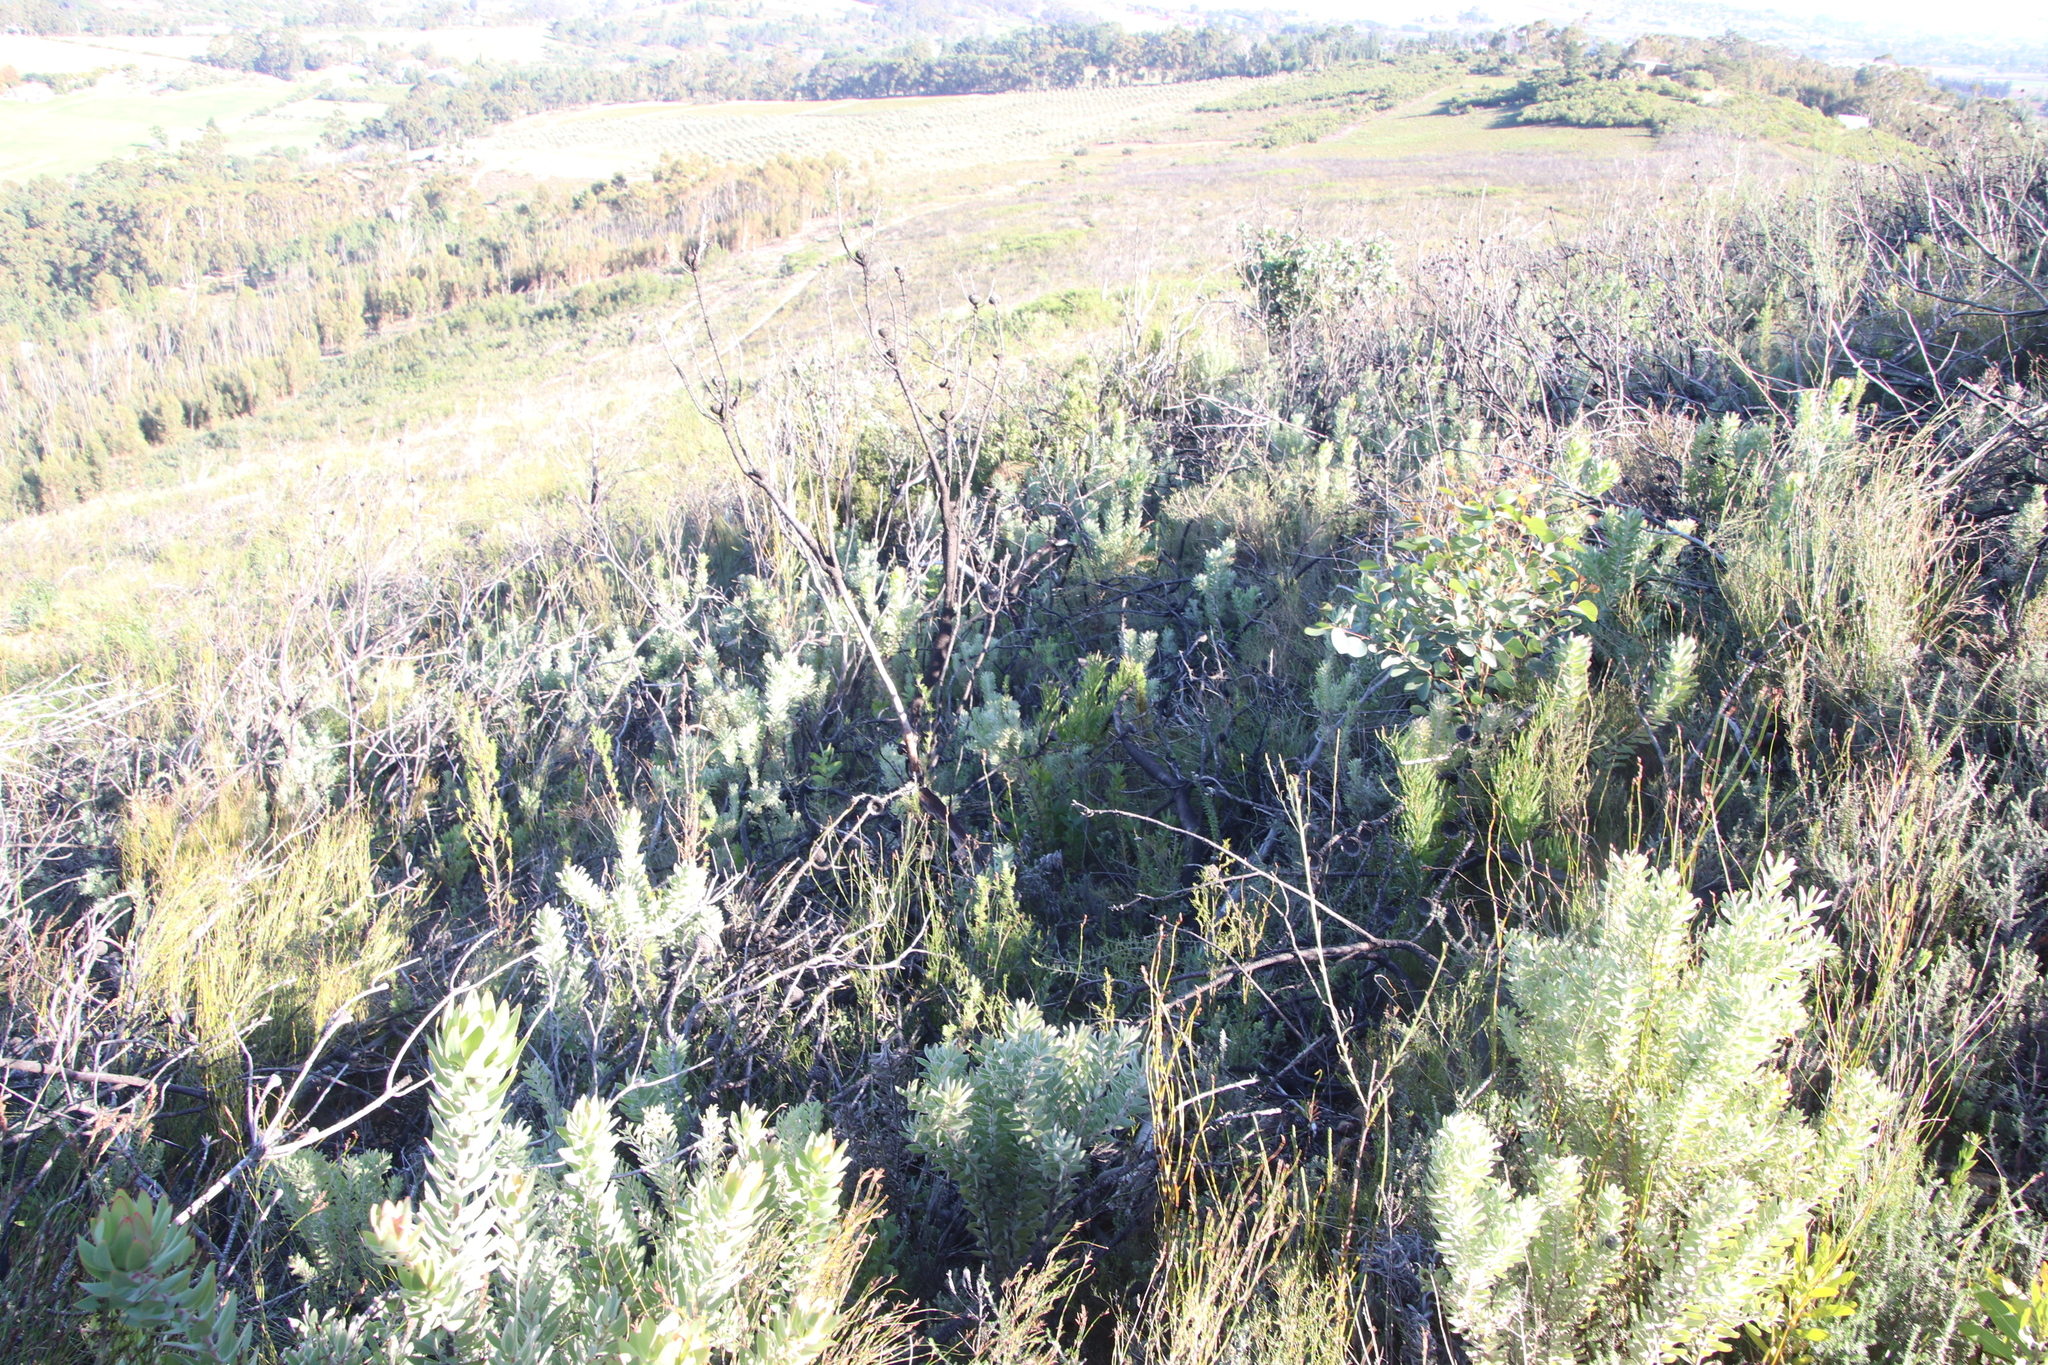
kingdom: Plantae
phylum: Tracheophyta
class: Magnoliopsida
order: Proteales
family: Proteaceae
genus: Leucadendron
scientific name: Leucadendron daphnoides
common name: Du toit's kloof conebush
